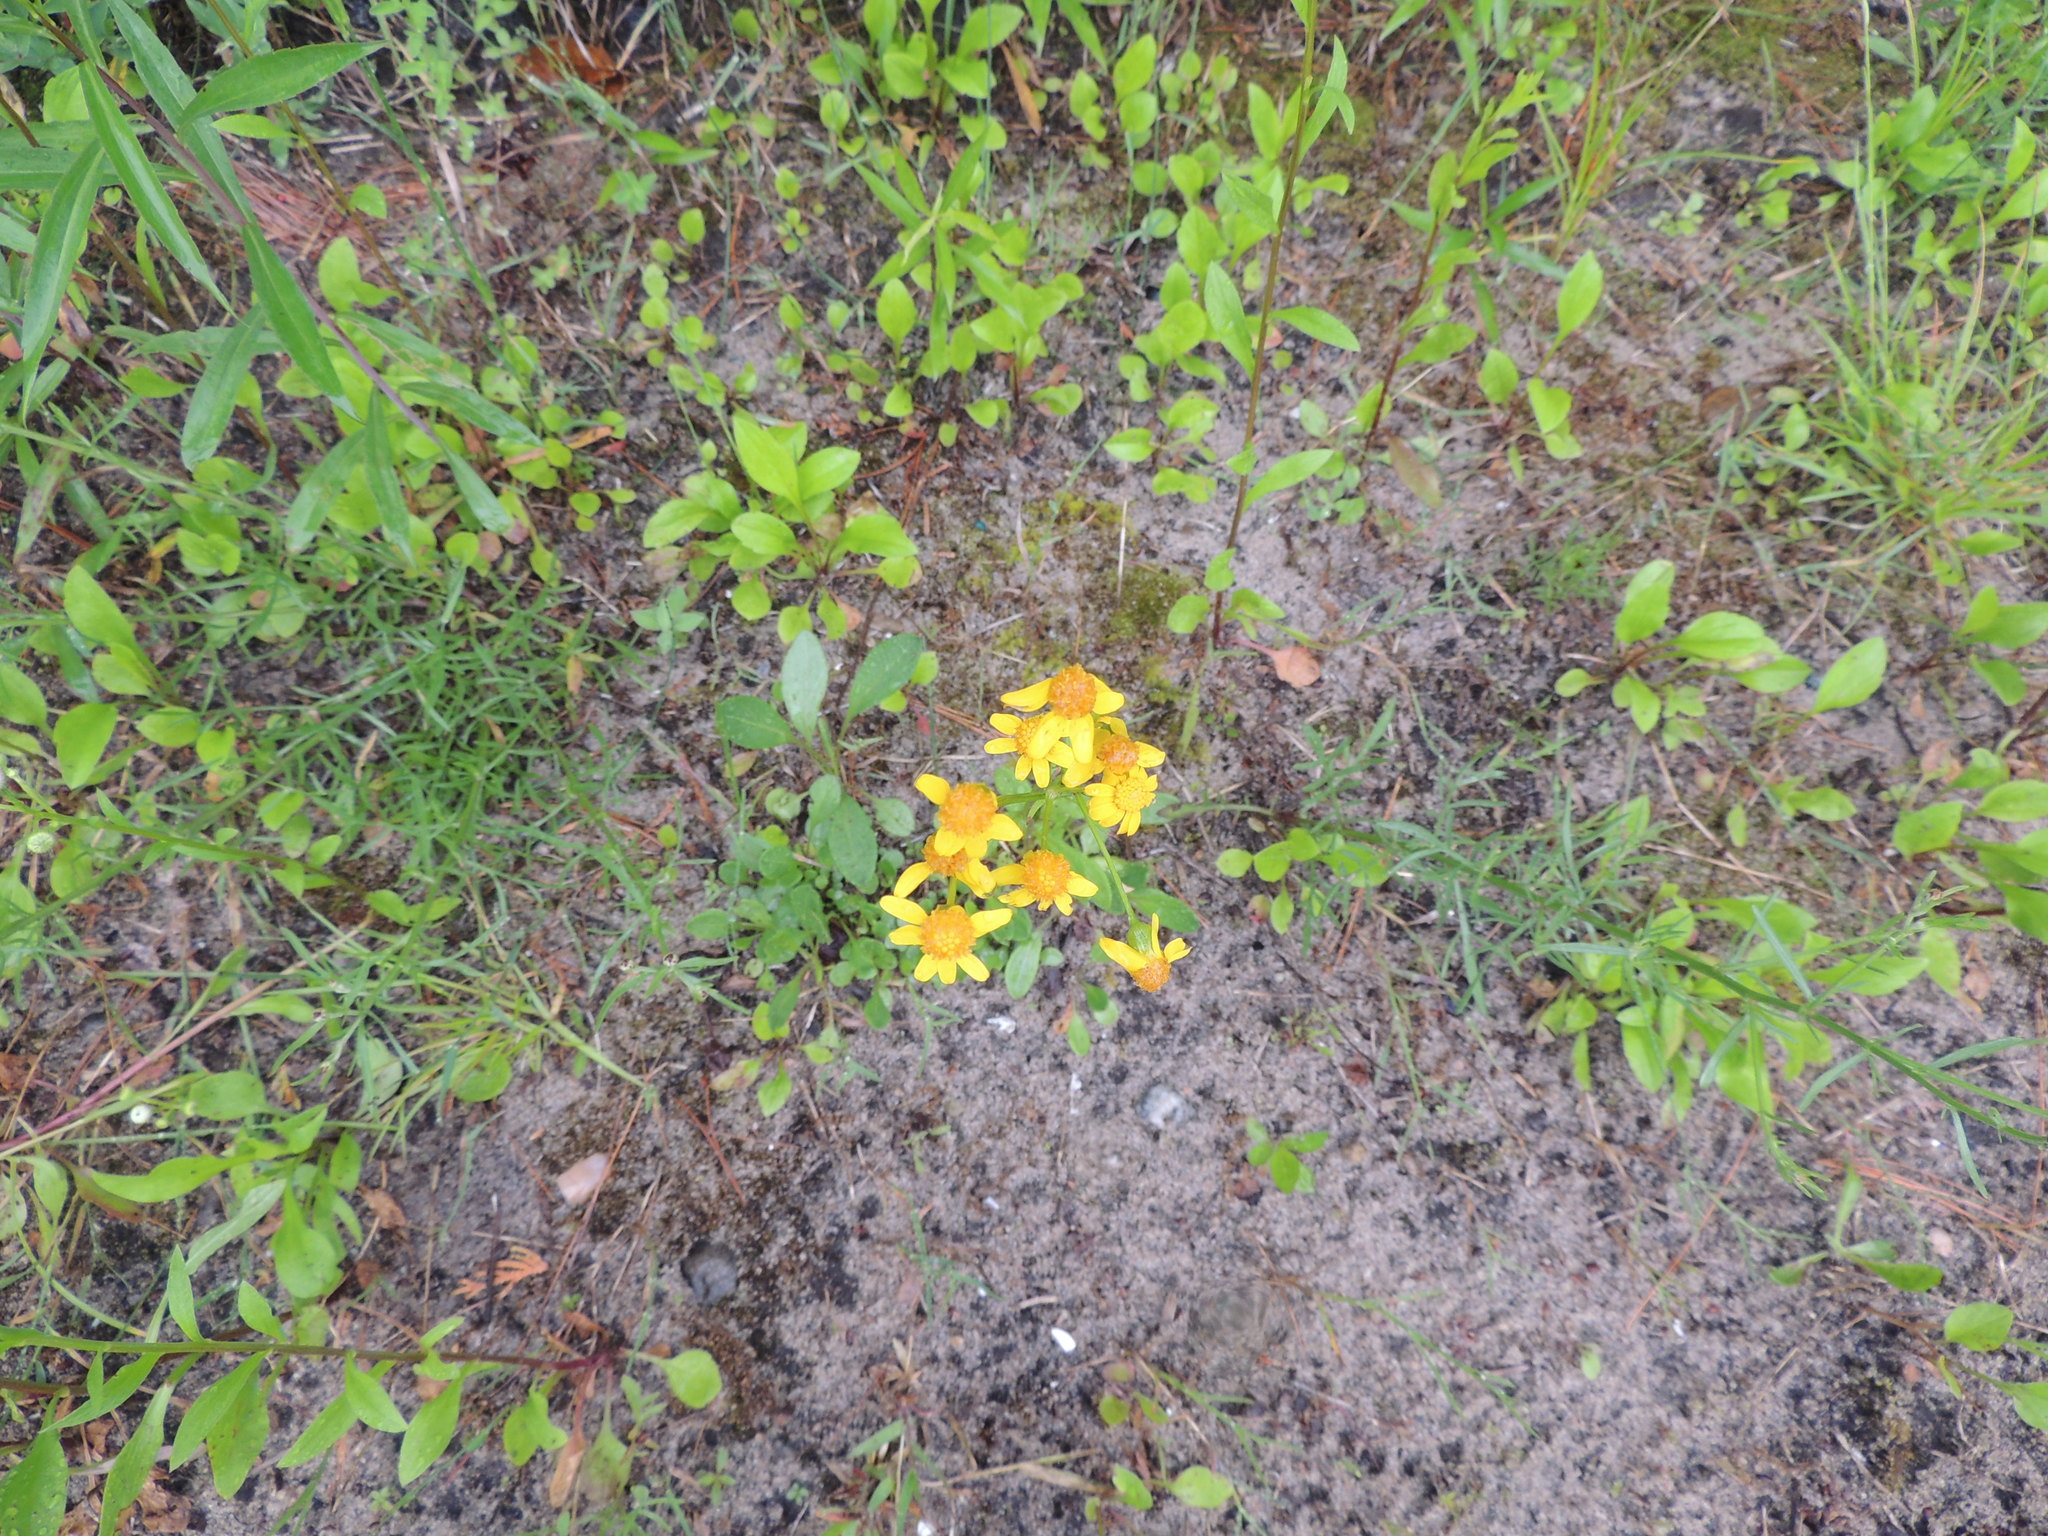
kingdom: Plantae
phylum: Tracheophyta
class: Magnoliopsida
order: Asterales
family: Asteraceae
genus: Packera
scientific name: Packera paupercula
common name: Balsam groundsel
